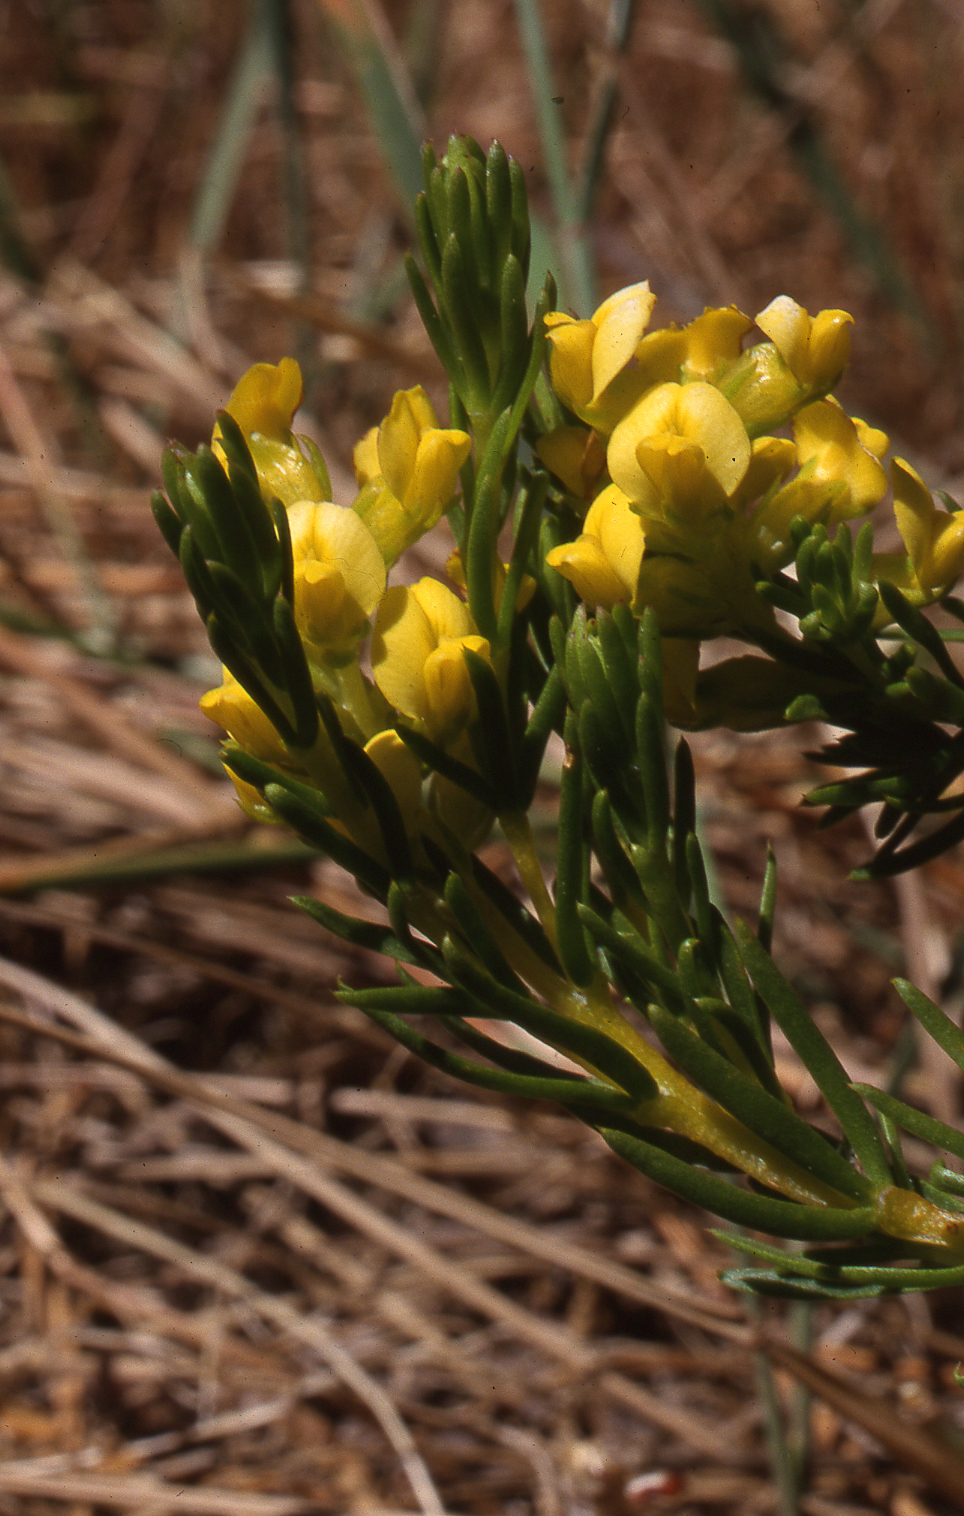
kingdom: Plantae
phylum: Tracheophyta
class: Magnoliopsida
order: Fabales
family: Fabaceae
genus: Aspalathus
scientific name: Aspalathus callosa
